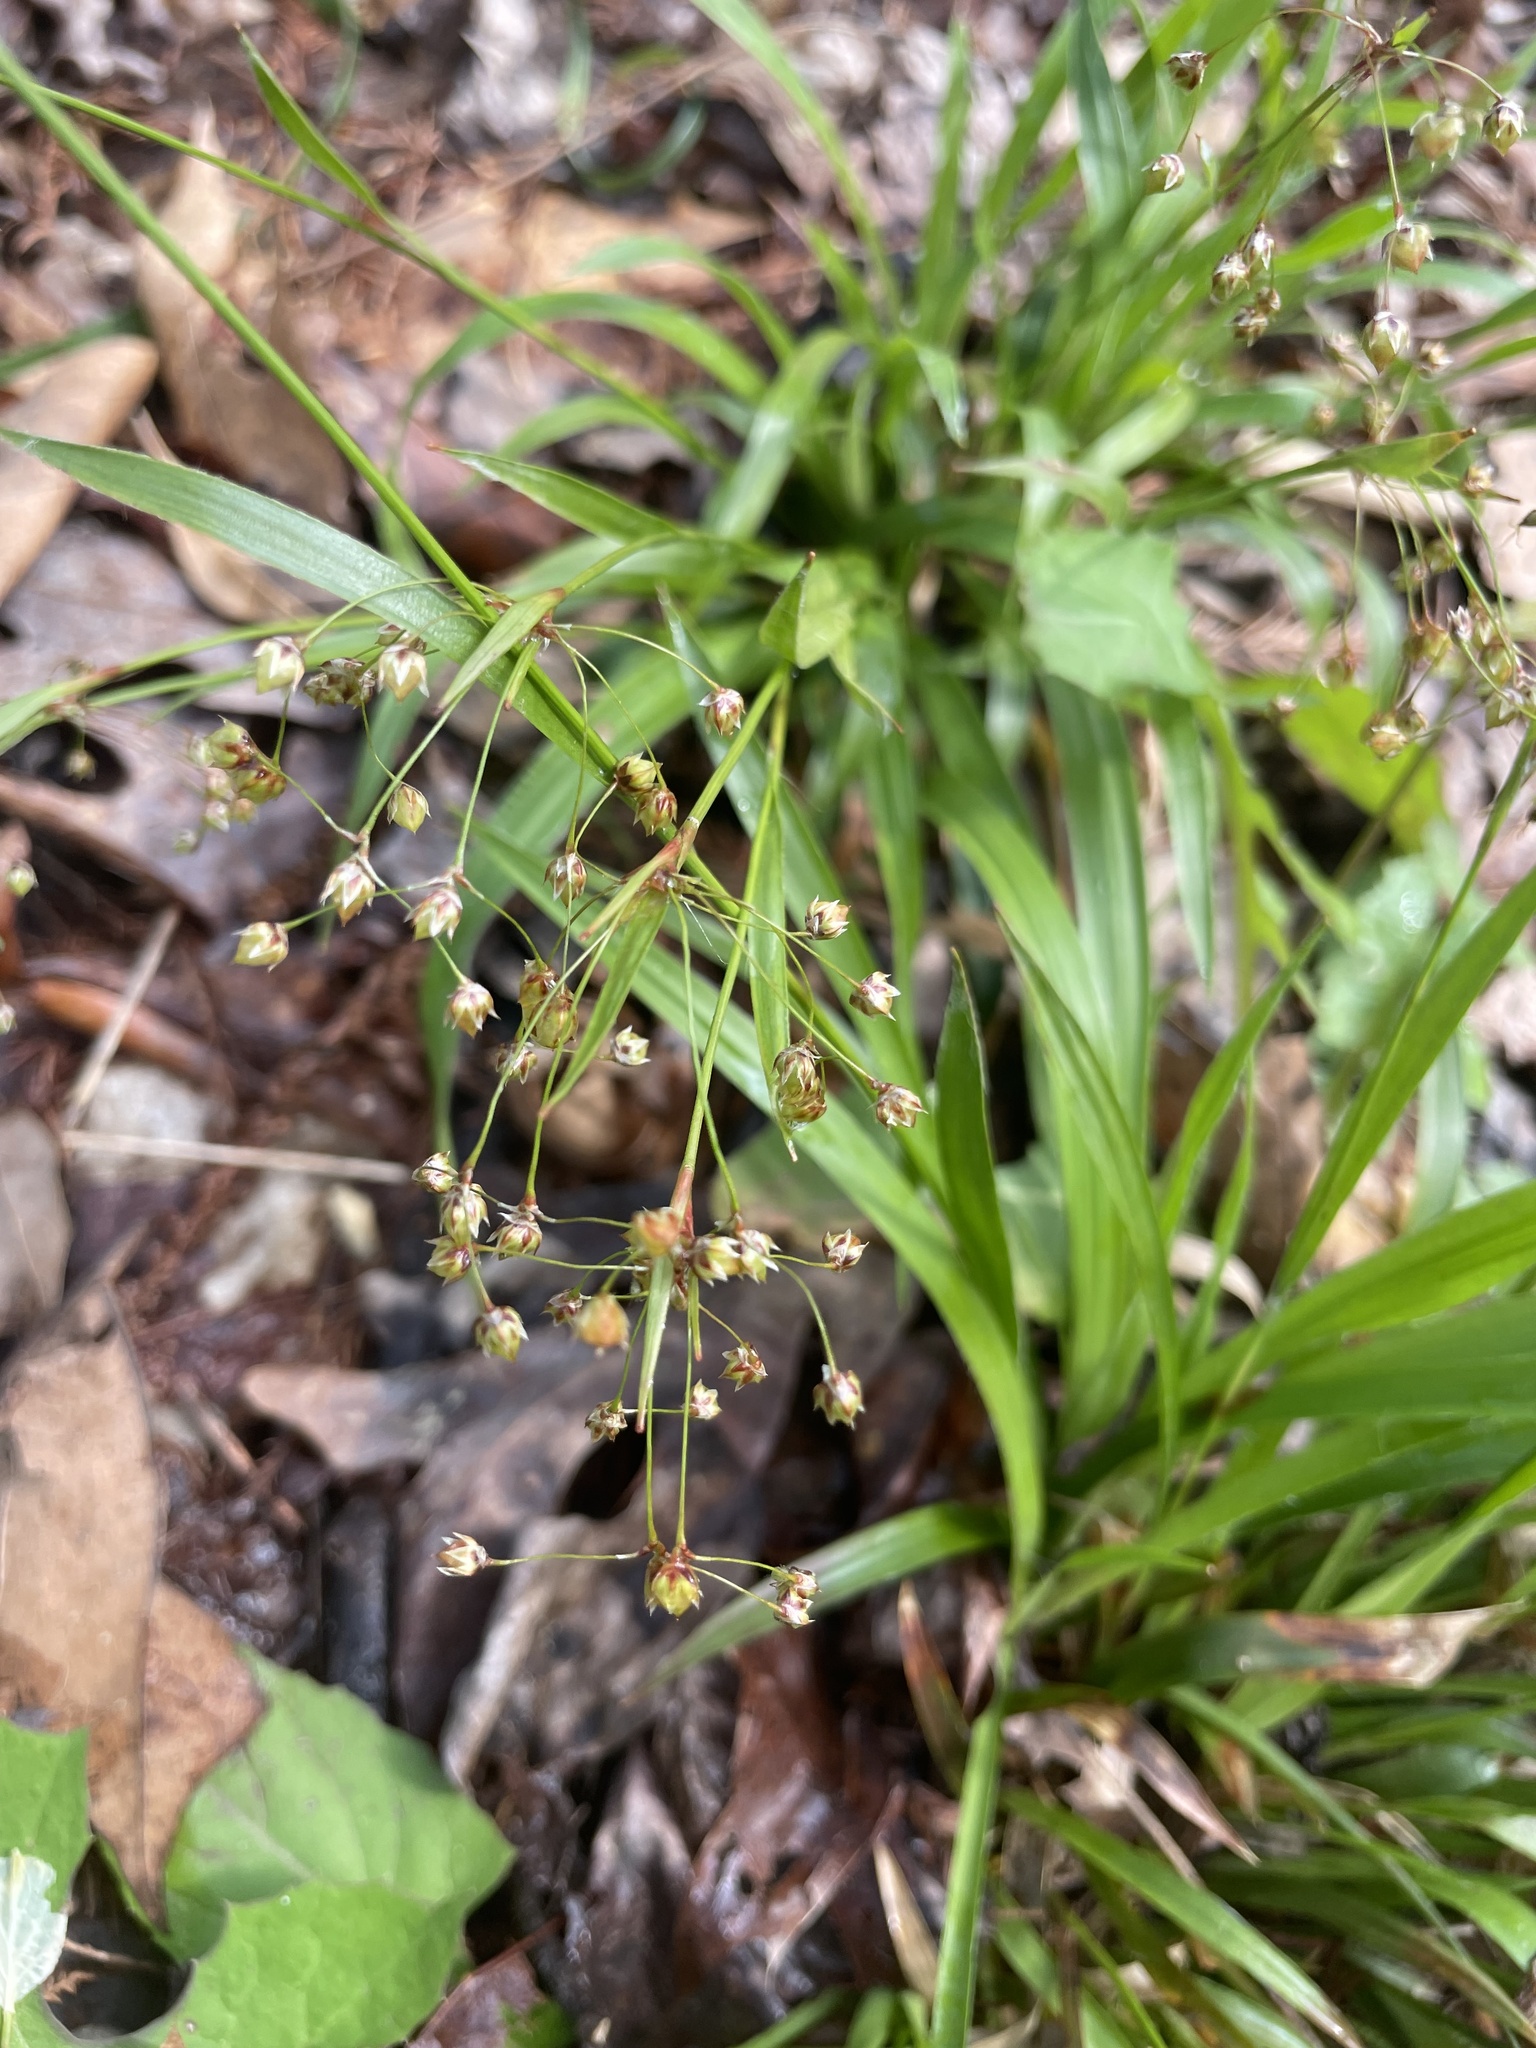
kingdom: Plantae
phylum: Tracheophyta
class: Liliopsida
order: Poales
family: Juncaceae
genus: Luzula
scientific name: Luzula acuminata
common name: Hairy woodrush
